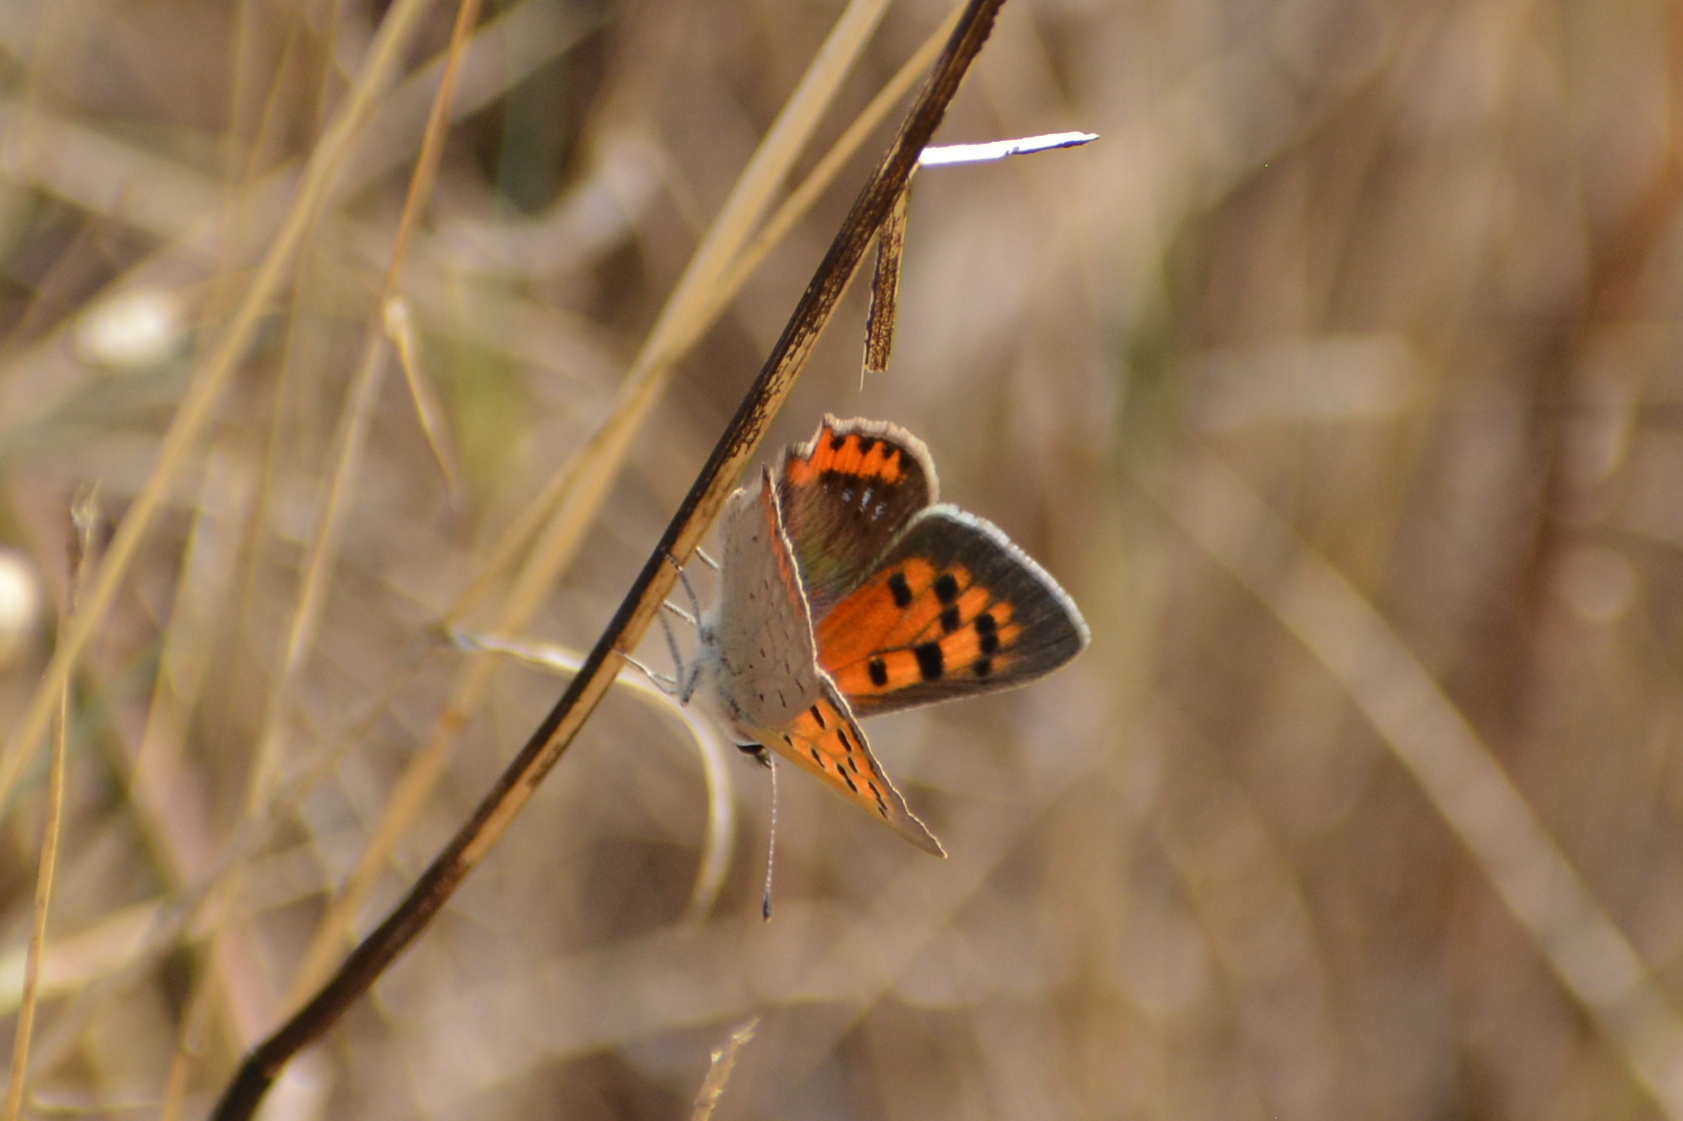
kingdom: Animalia
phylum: Arthropoda
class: Insecta
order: Lepidoptera
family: Lycaenidae
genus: Lycaena
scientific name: Lycaena phlaeas
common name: Small copper
